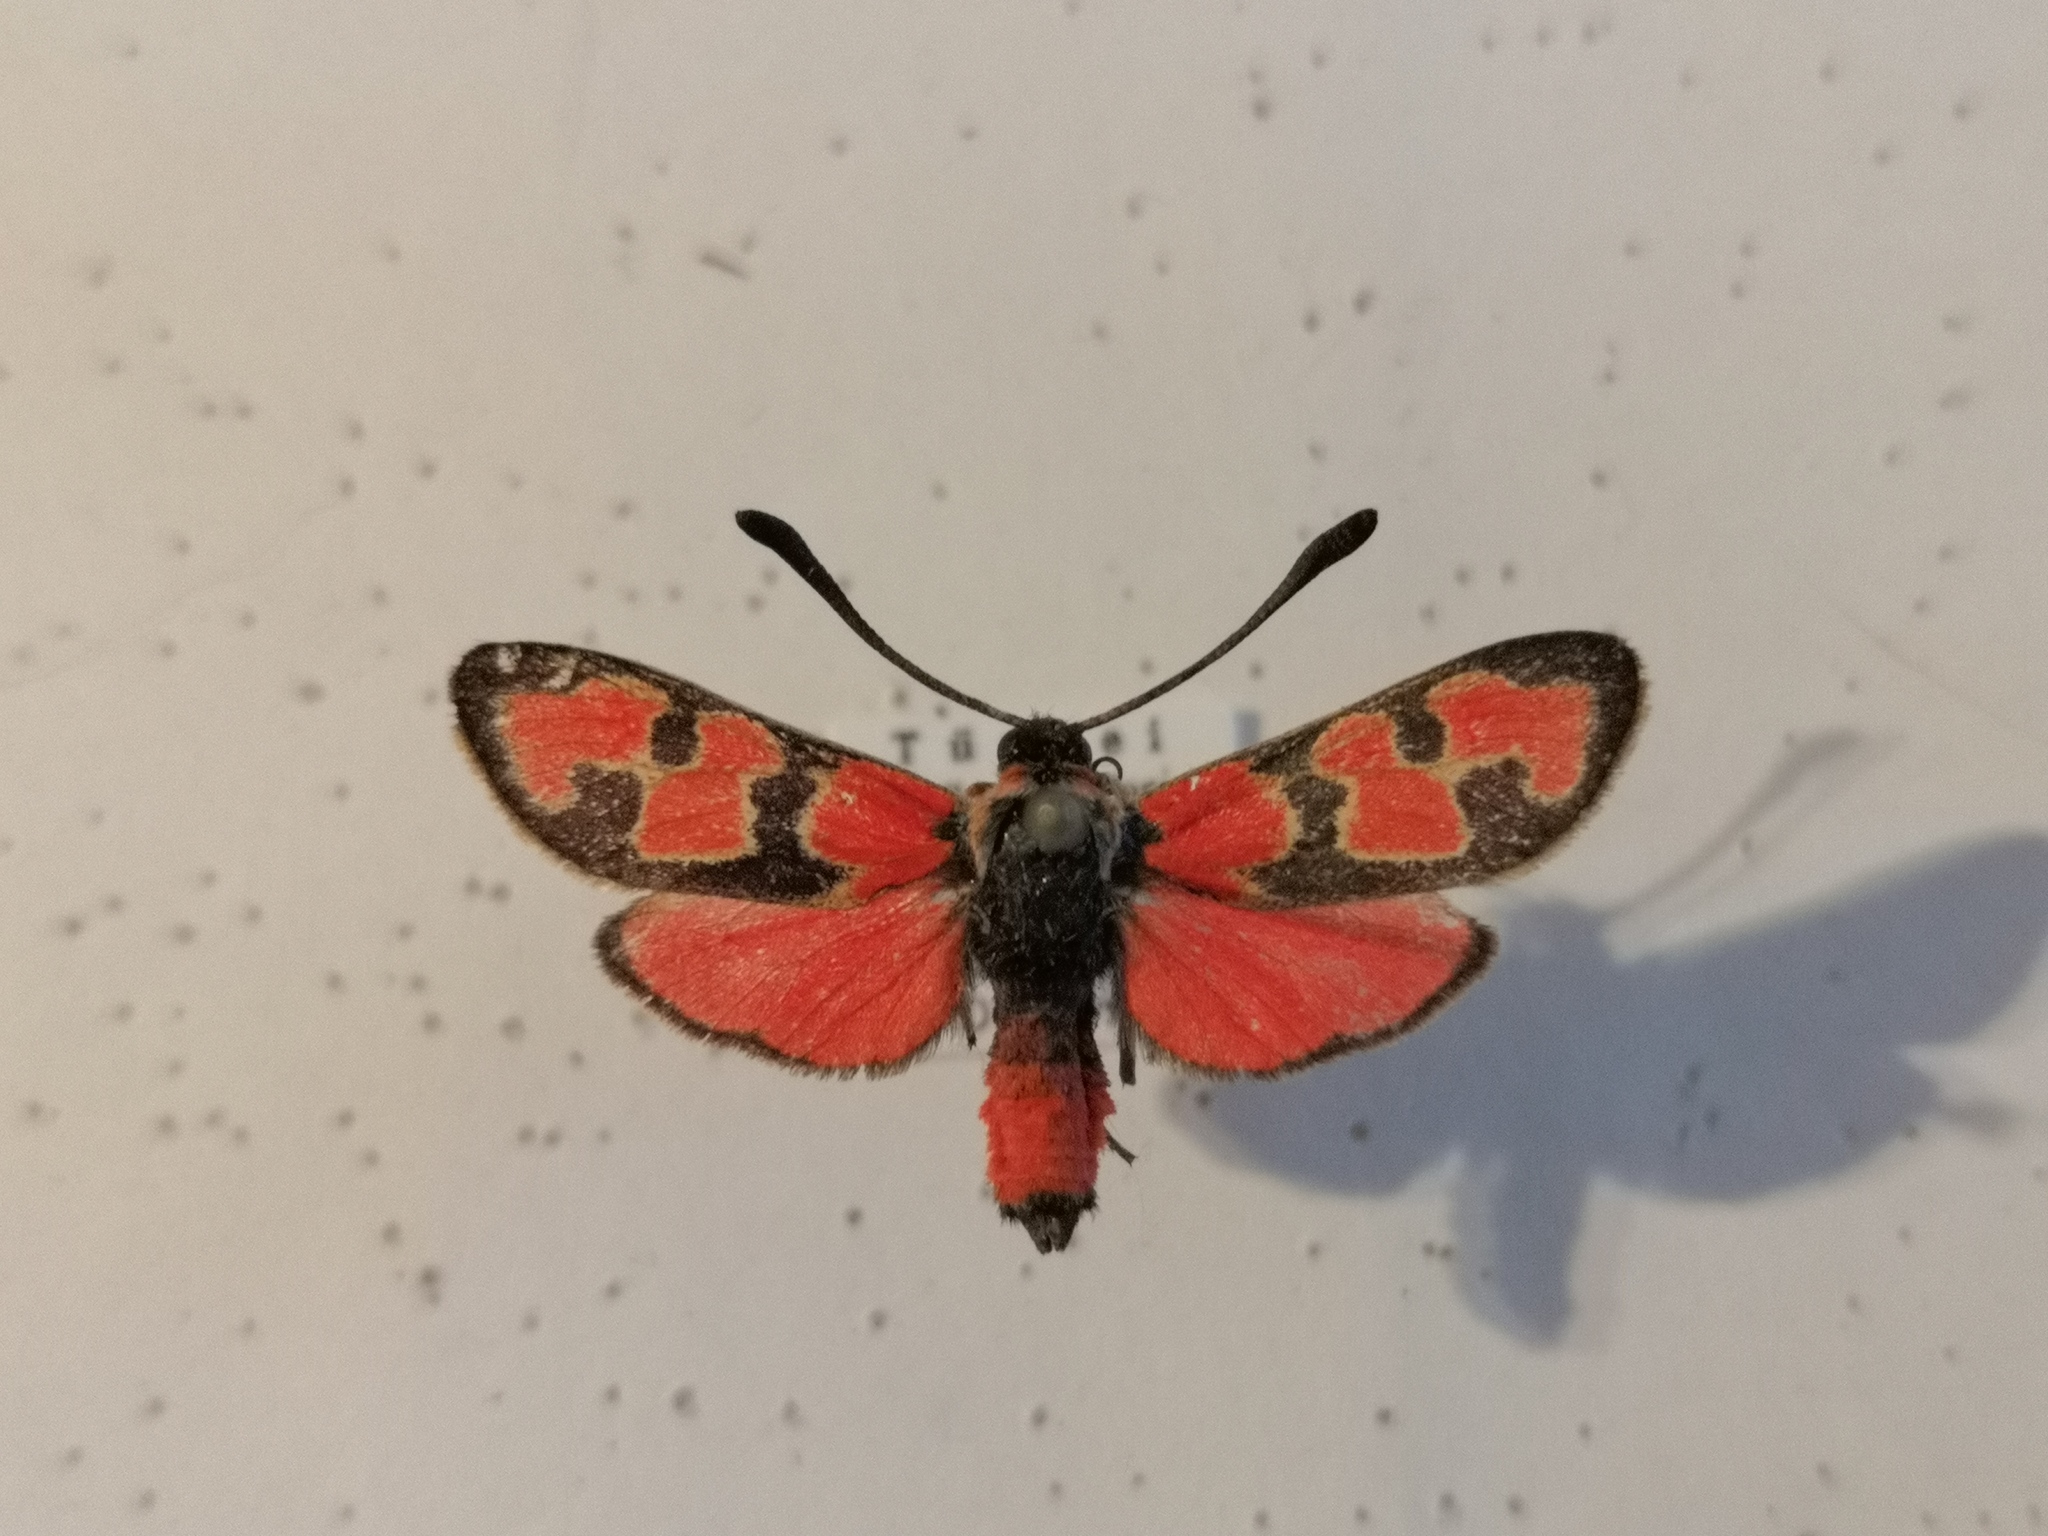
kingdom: Animalia
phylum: Arthropoda
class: Insecta
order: Lepidoptera
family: Zygaenidae
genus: Zygaena
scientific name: Zygaena olivieri
